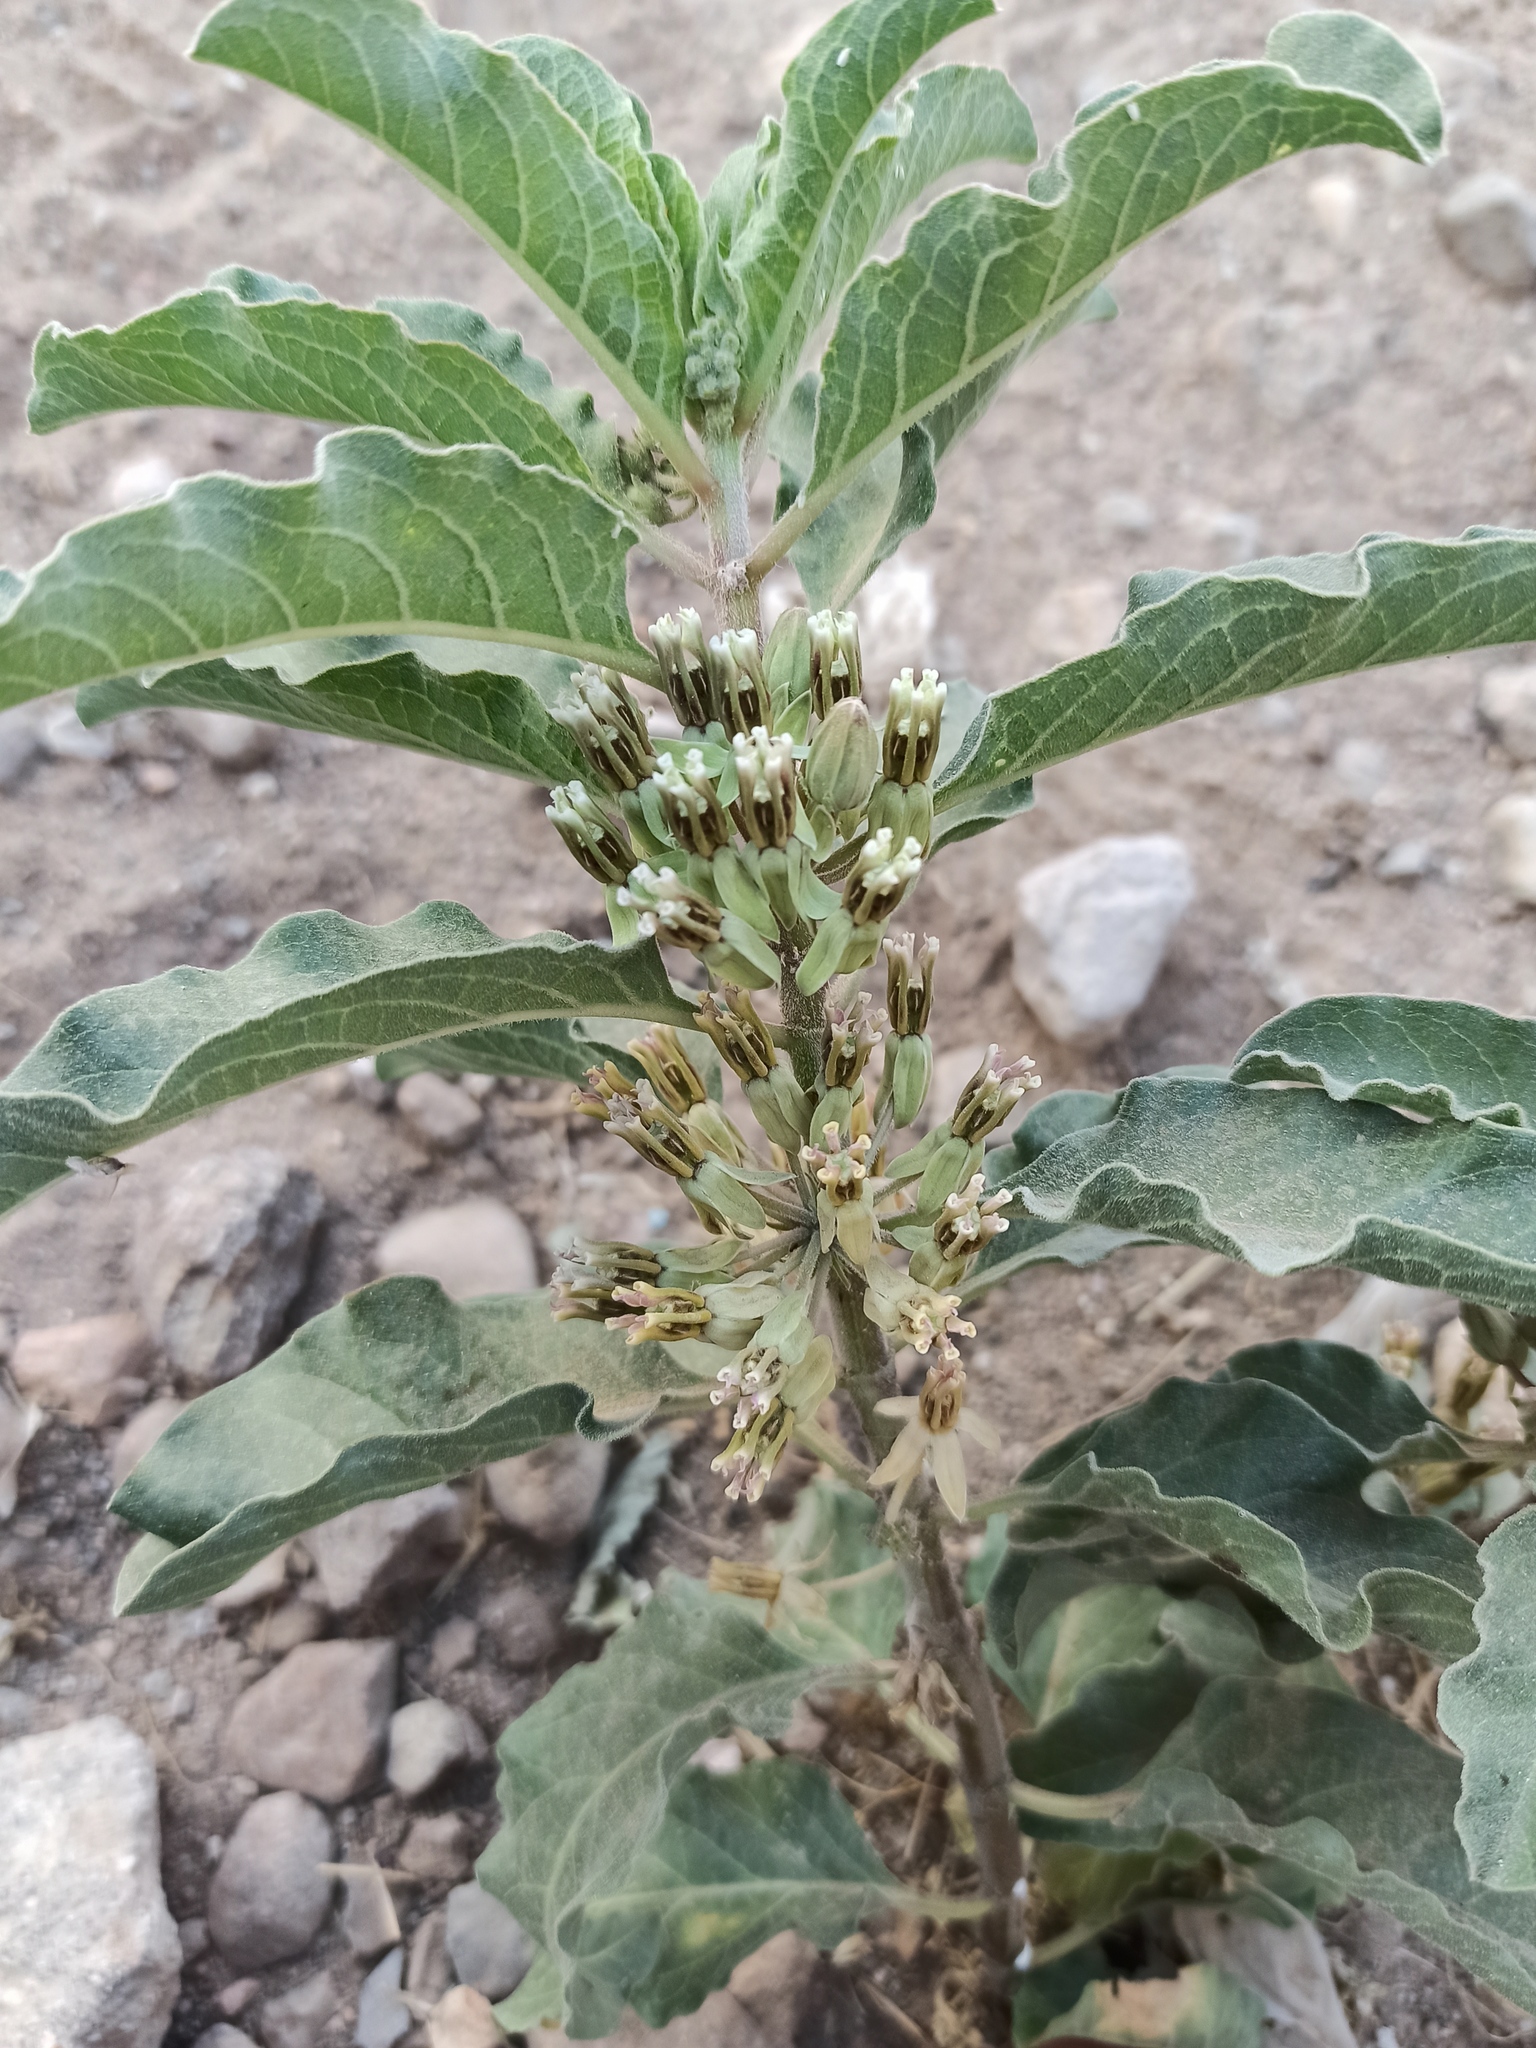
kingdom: Plantae
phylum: Tracheophyta
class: Magnoliopsida
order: Gentianales
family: Apocynaceae
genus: Asclepias
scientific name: Asclepias oenotheroides
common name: Zizotes milkweed
